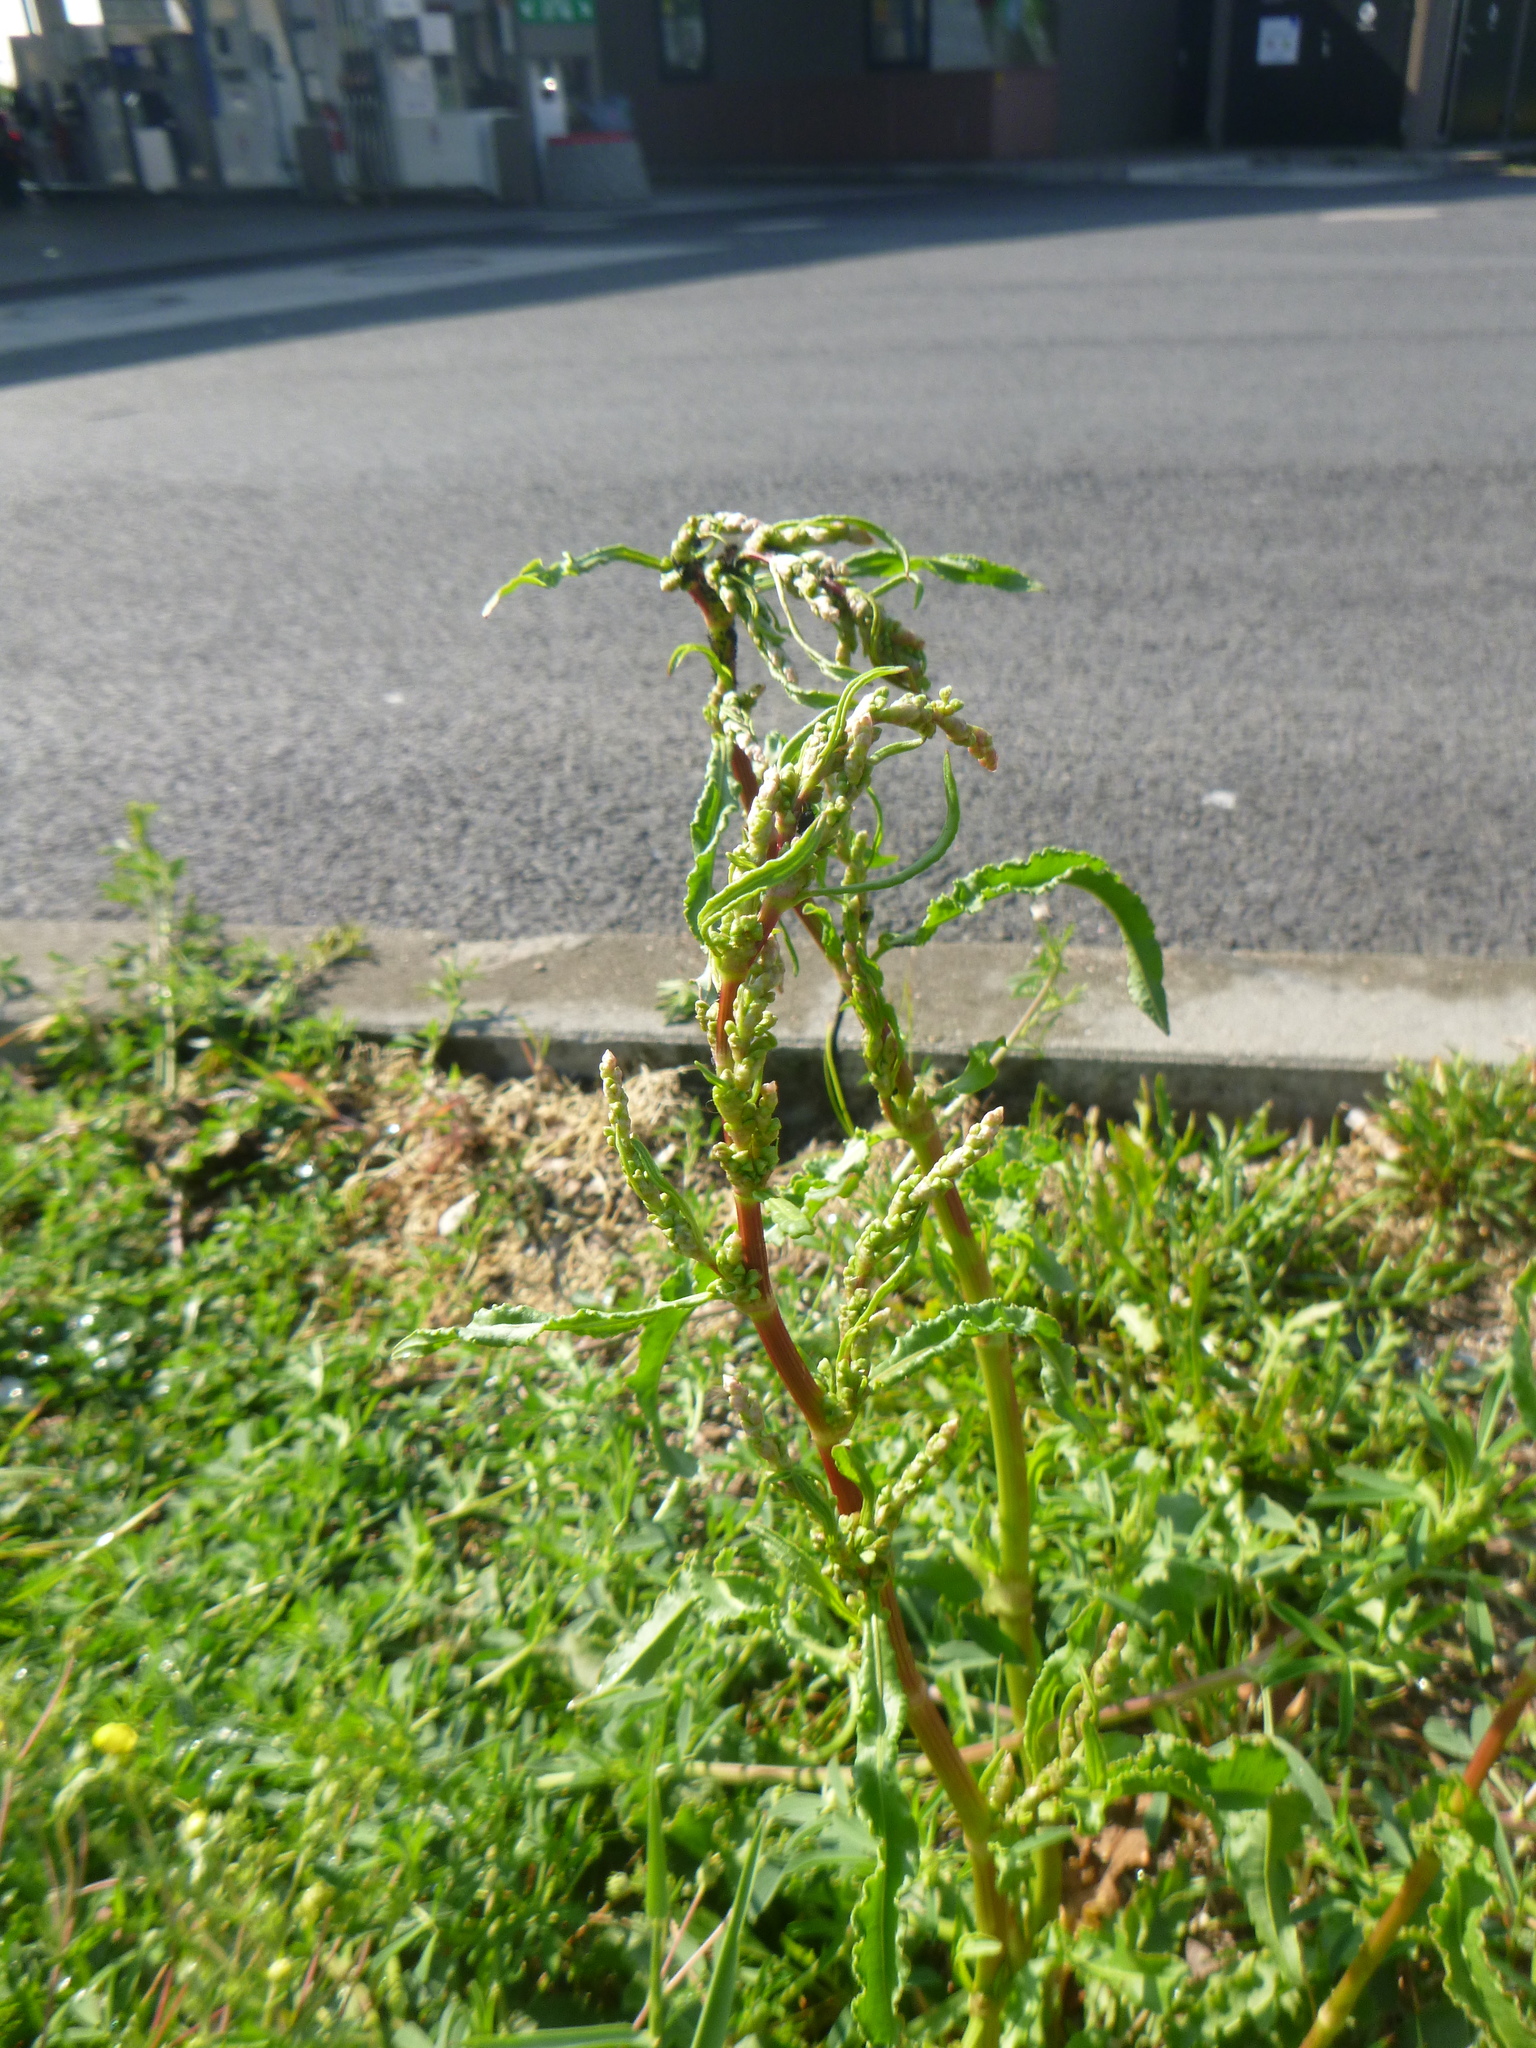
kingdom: Plantae
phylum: Tracheophyta
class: Magnoliopsida
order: Caryophyllales
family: Polygonaceae
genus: Rumex
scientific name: Rumex crispus
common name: Curled dock
